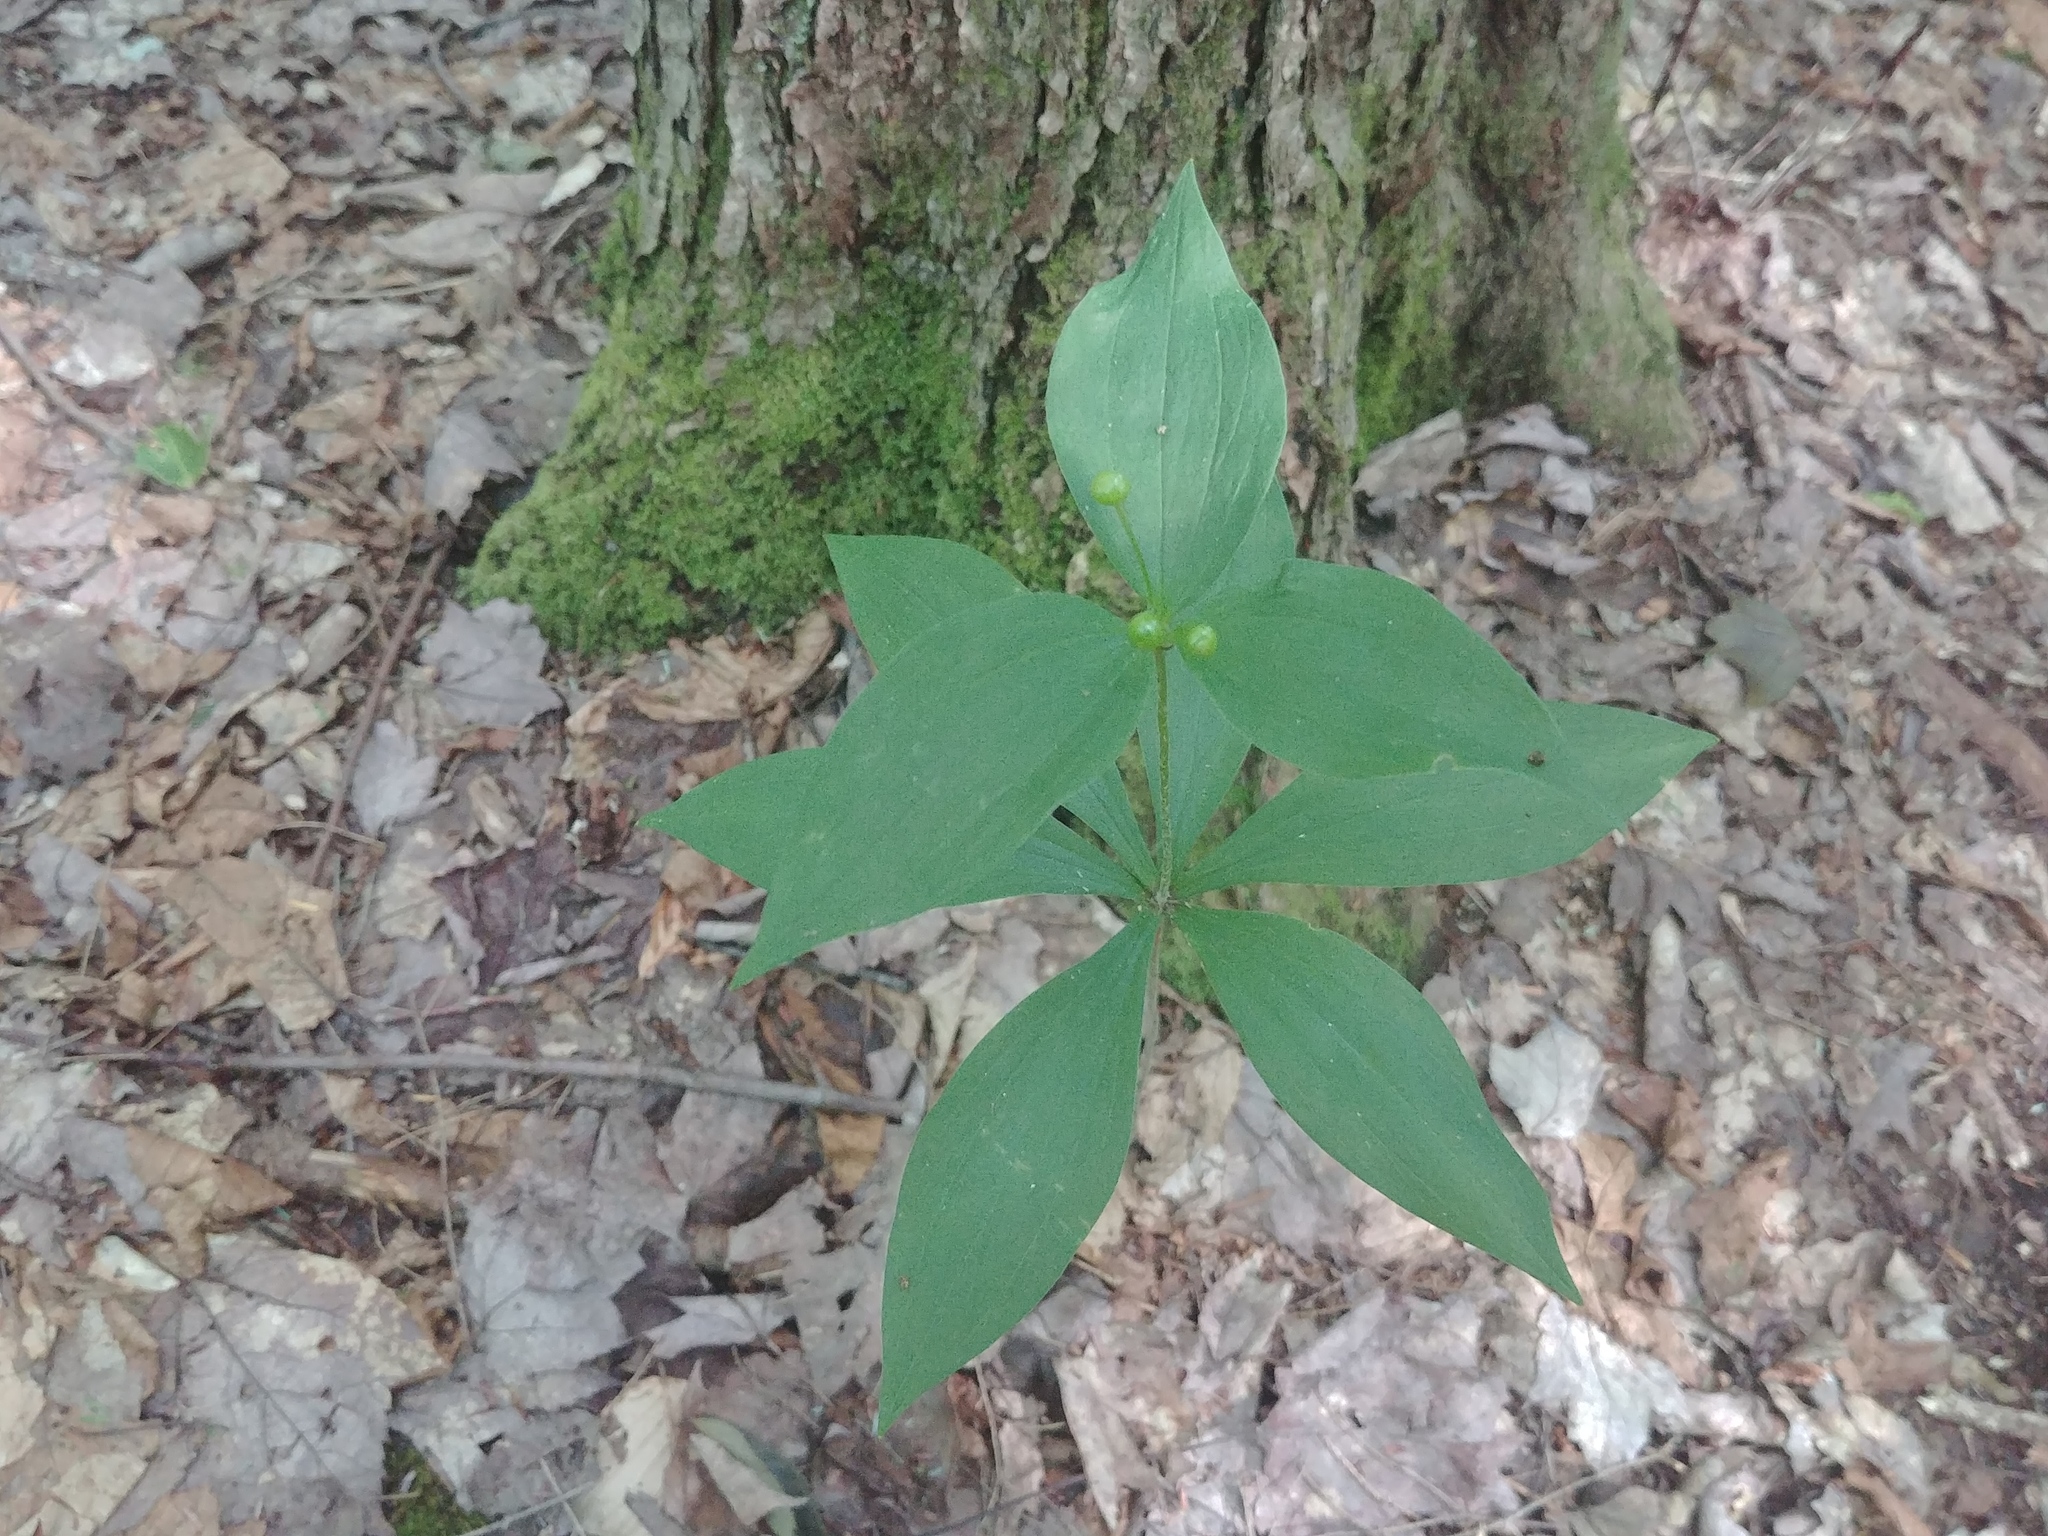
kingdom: Plantae
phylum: Tracheophyta
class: Liliopsida
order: Liliales
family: Liliaceae
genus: Medeola
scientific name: Medeola virginiana
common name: Indian cucumber-root
